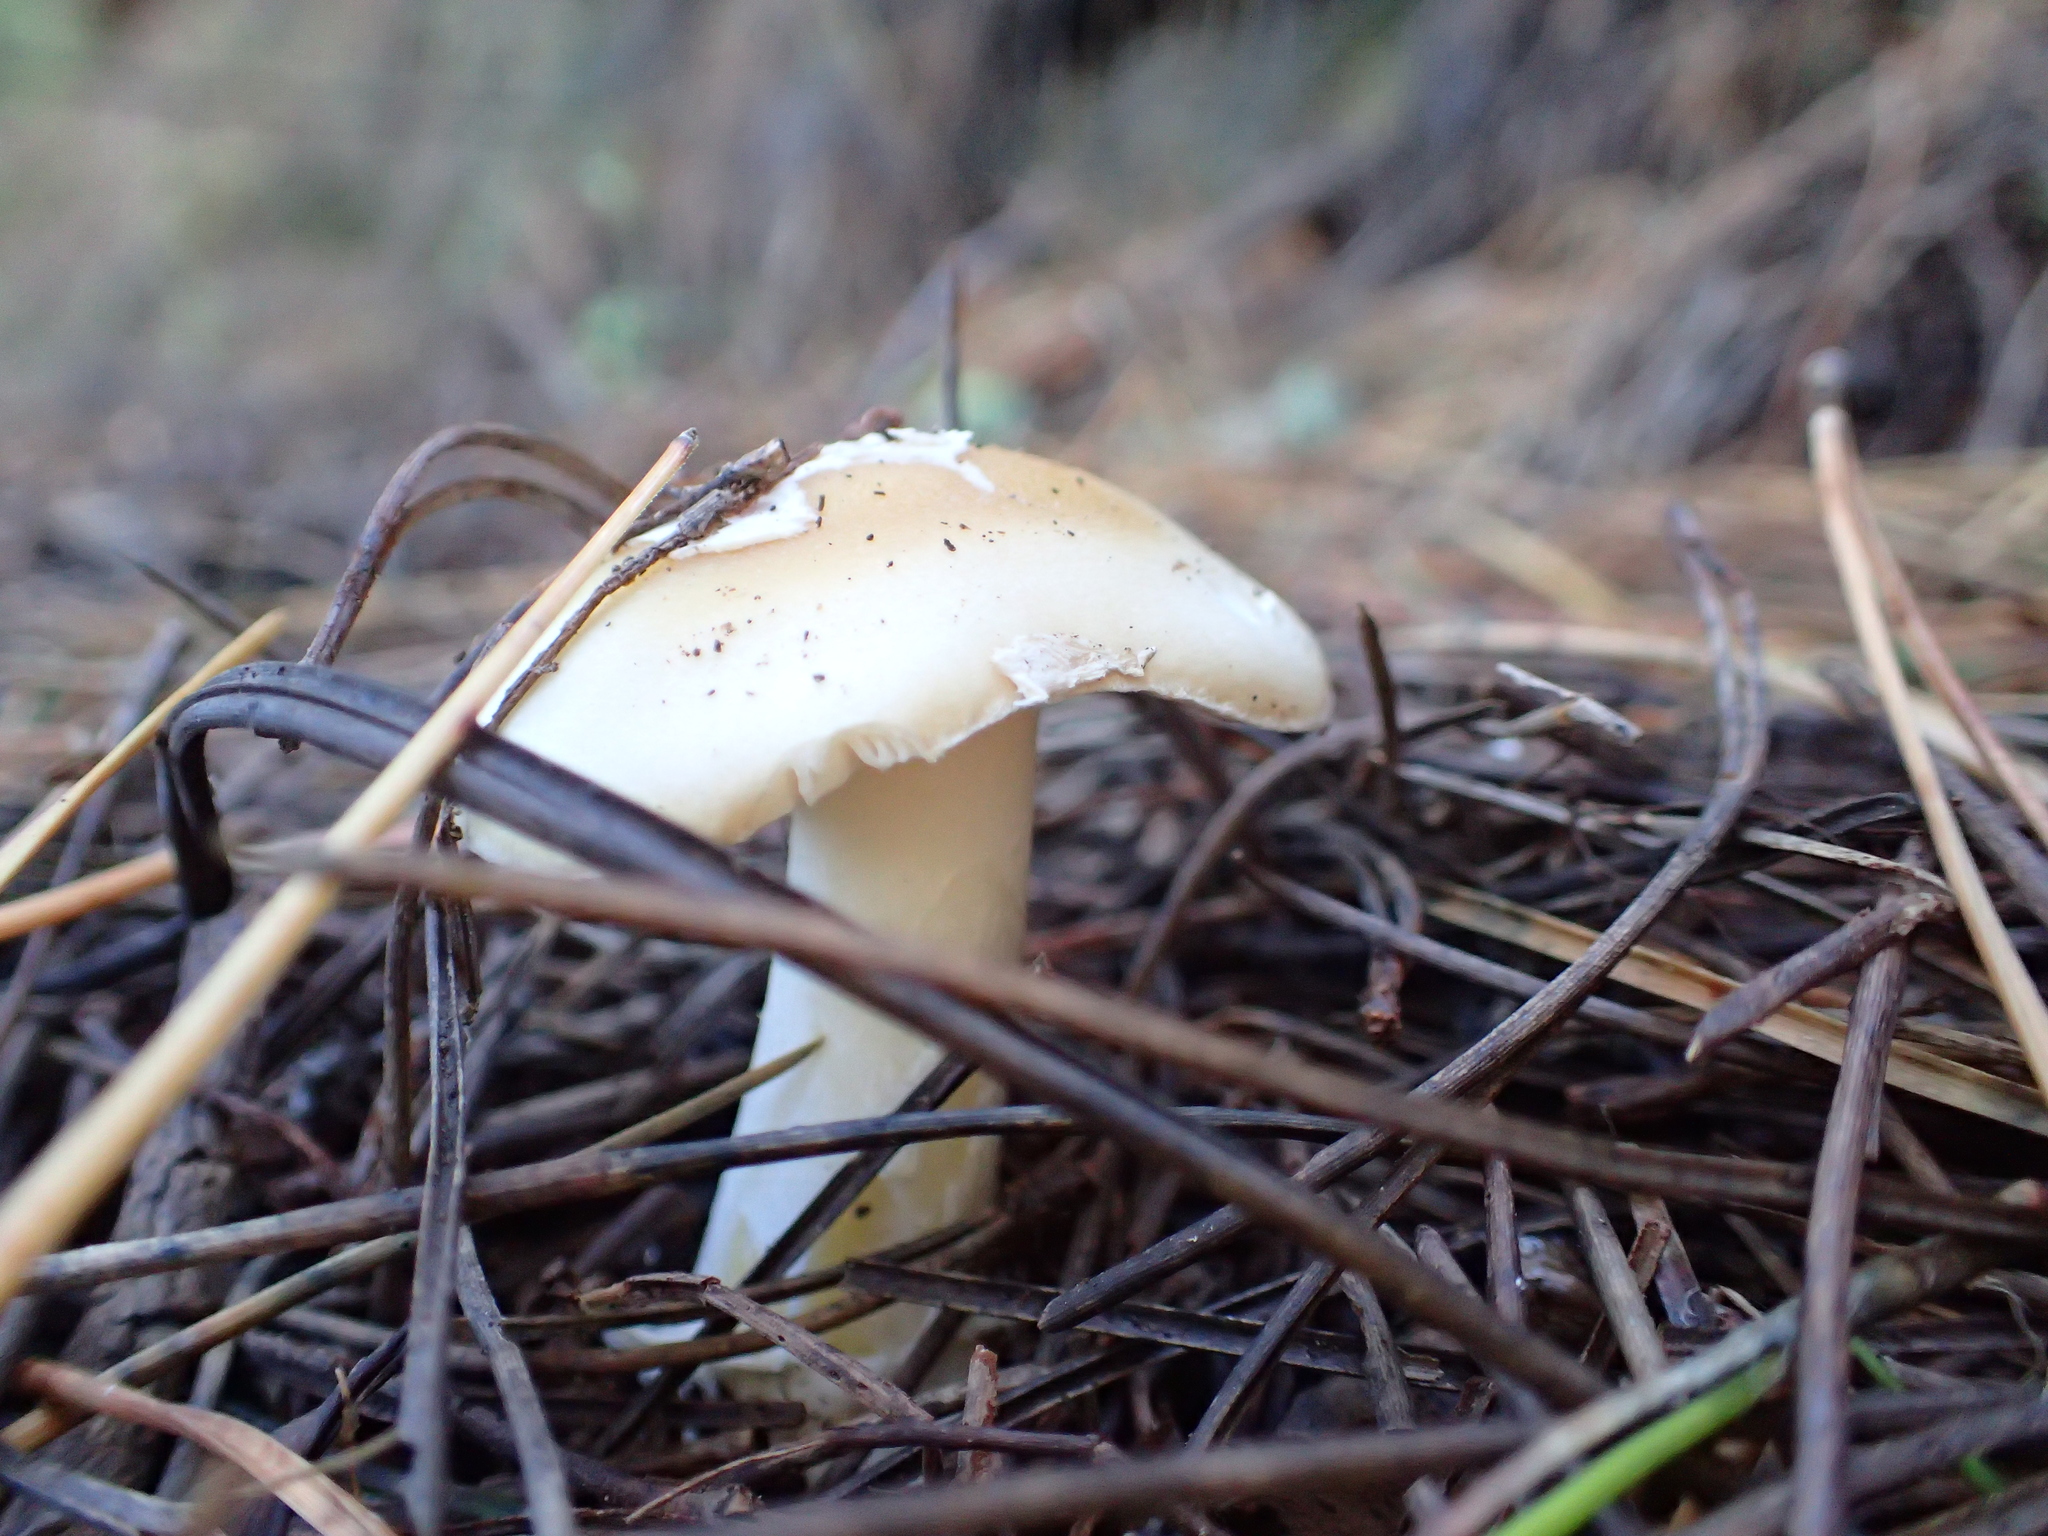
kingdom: Fungi
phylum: Basidiomycota
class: Agaricomycetes
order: Agaricales
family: Amanitaceae
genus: Amanita
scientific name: Amanita gemmata
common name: Jewelled amanita
